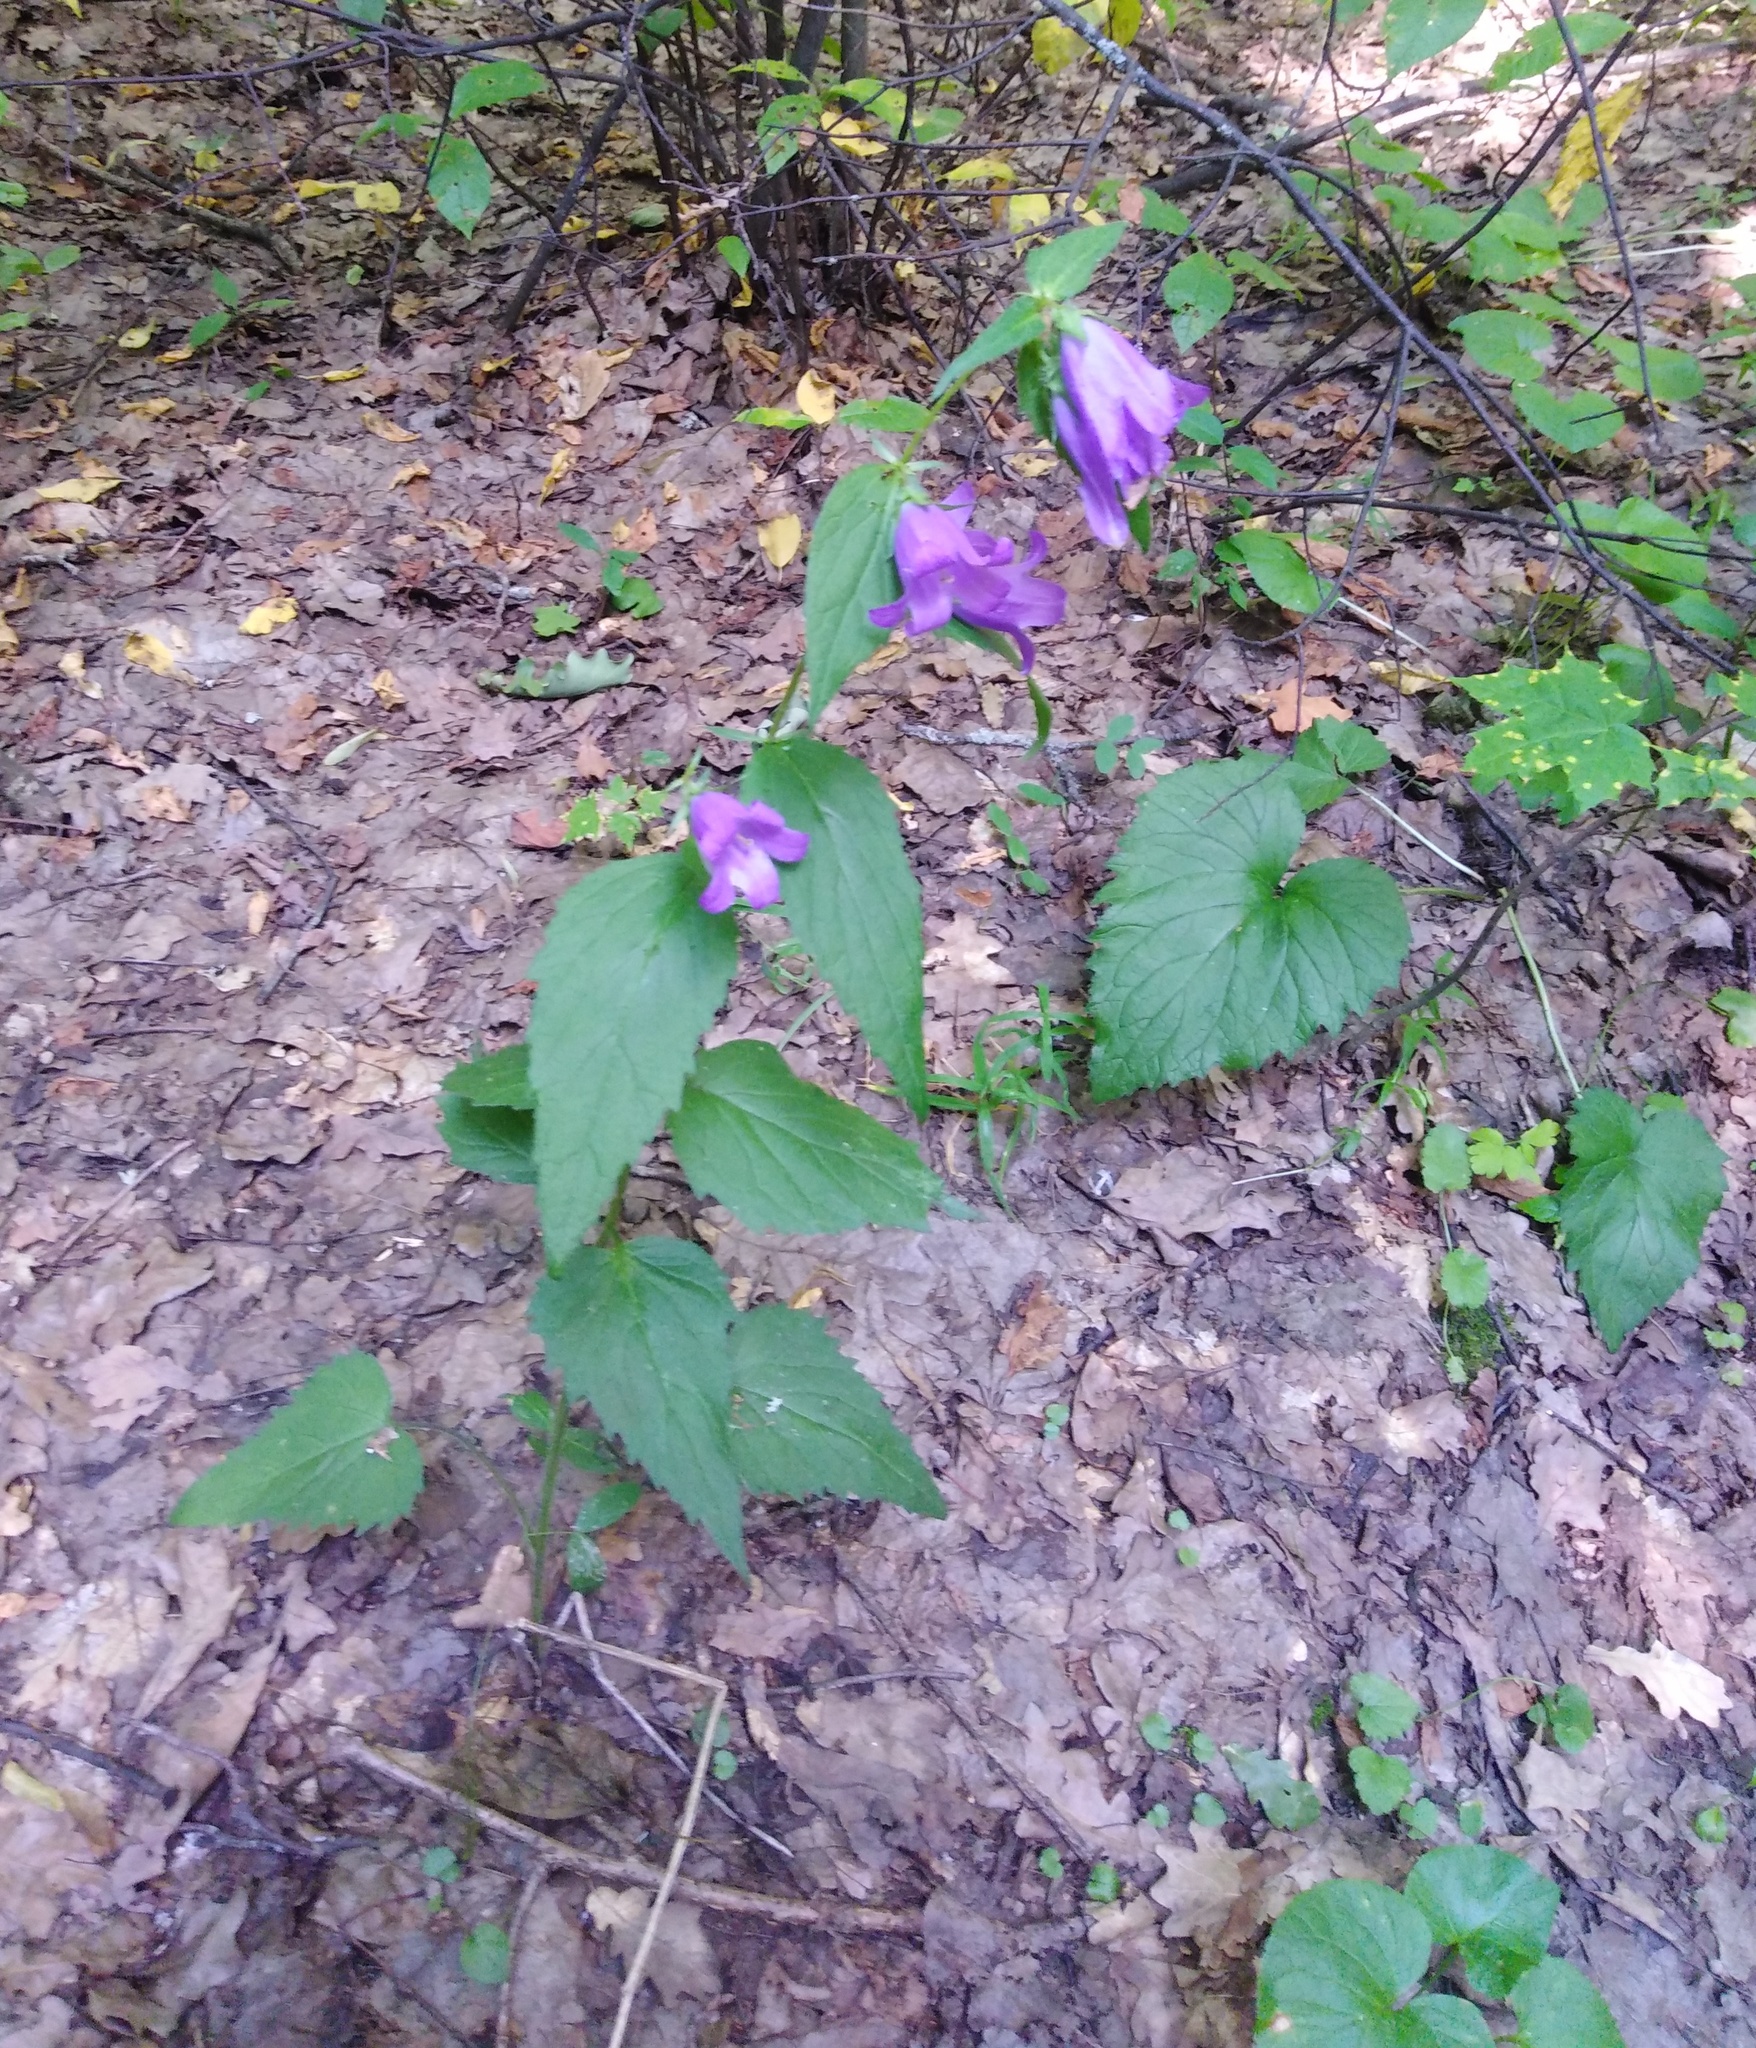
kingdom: Plantae
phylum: Tracheophyta
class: Magnoliopsida
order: Asterales
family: Campanulaceae
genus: Campanula
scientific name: Campanula trachelium
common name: Nettle-leaved bellflower
